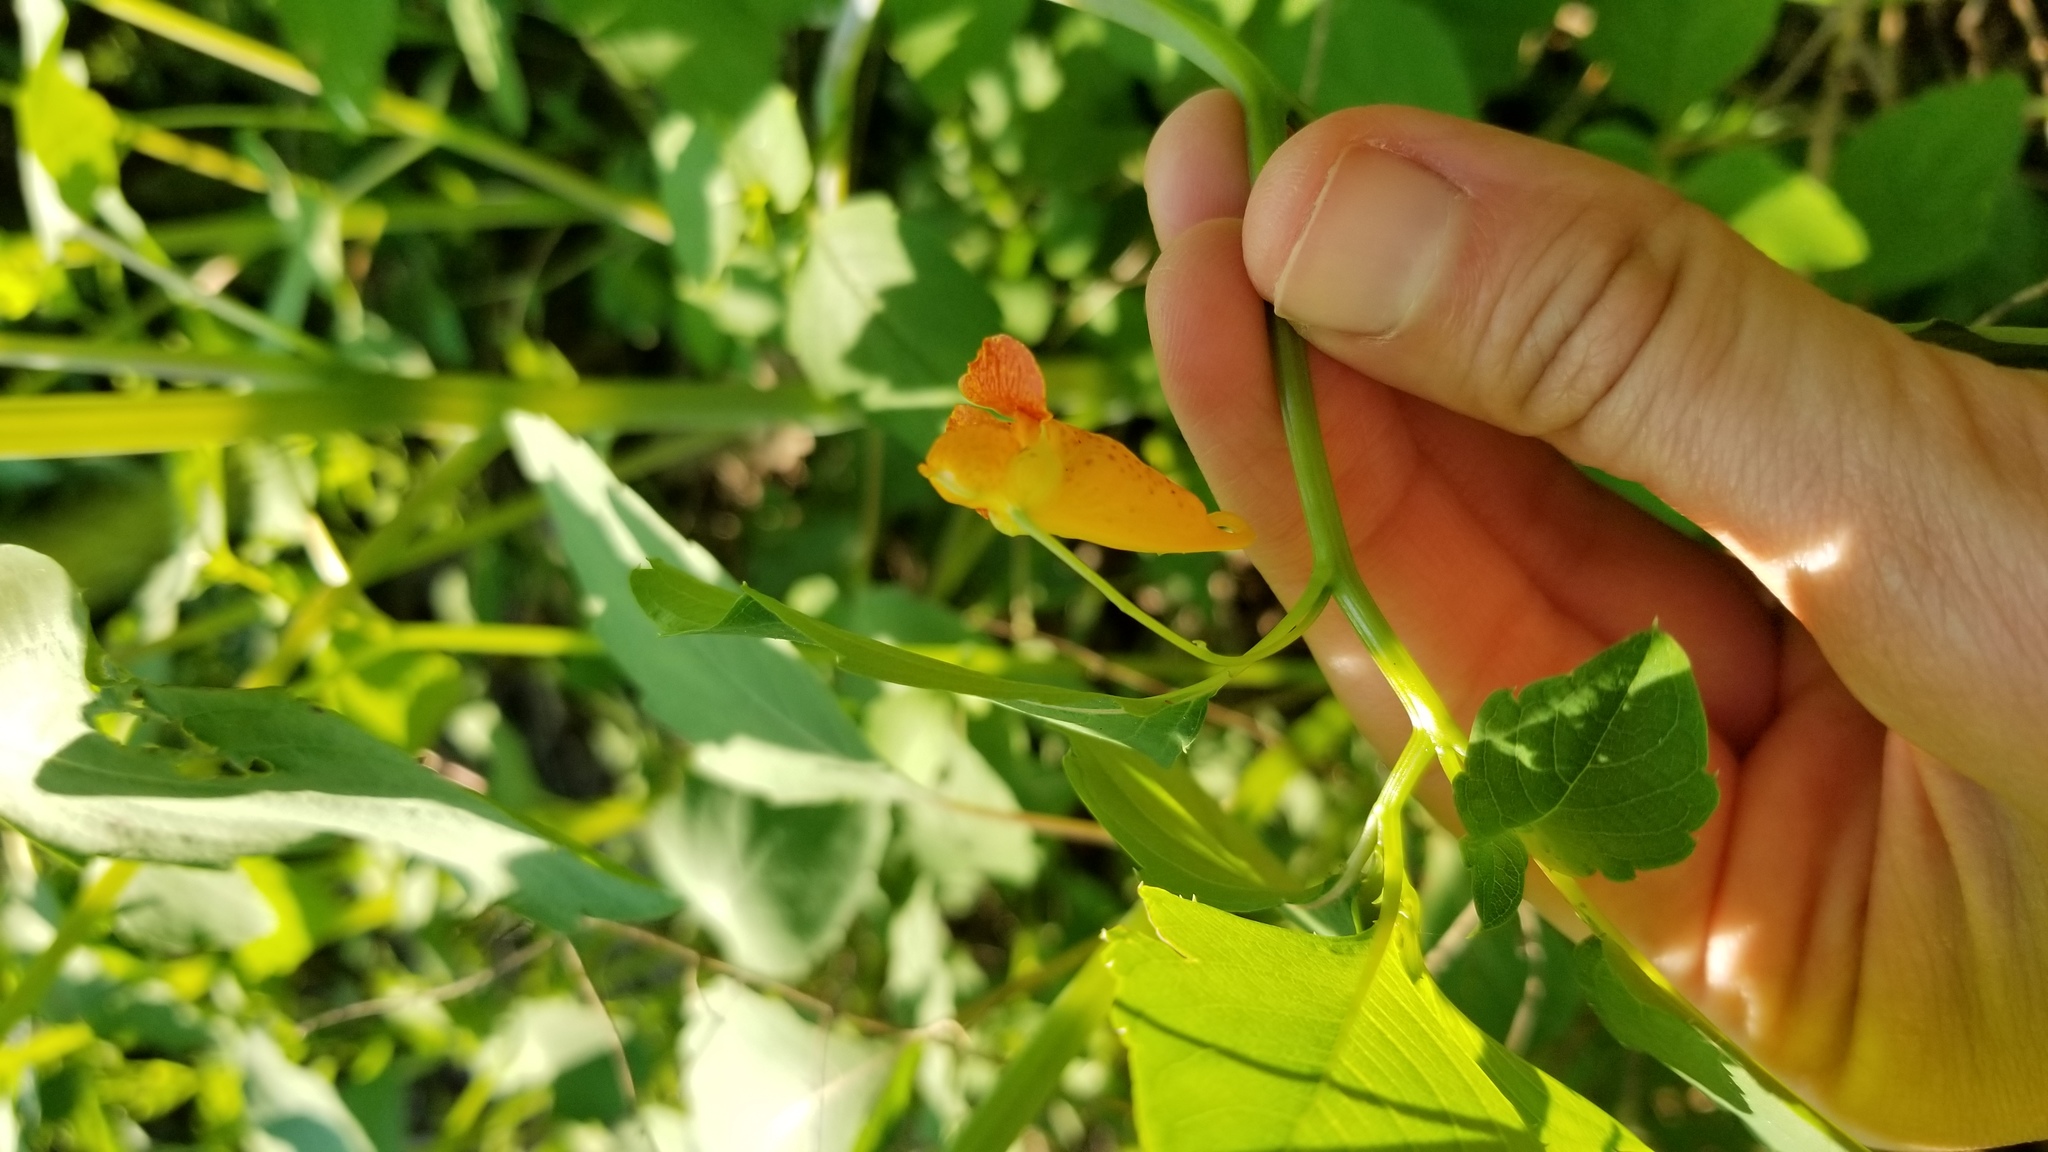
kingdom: Plantae
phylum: Tracheophyta
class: Magnoliopsida
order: Ericales
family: Balsaminaceae
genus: Impatiens
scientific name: Impatiens capensis
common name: Orange balsam
